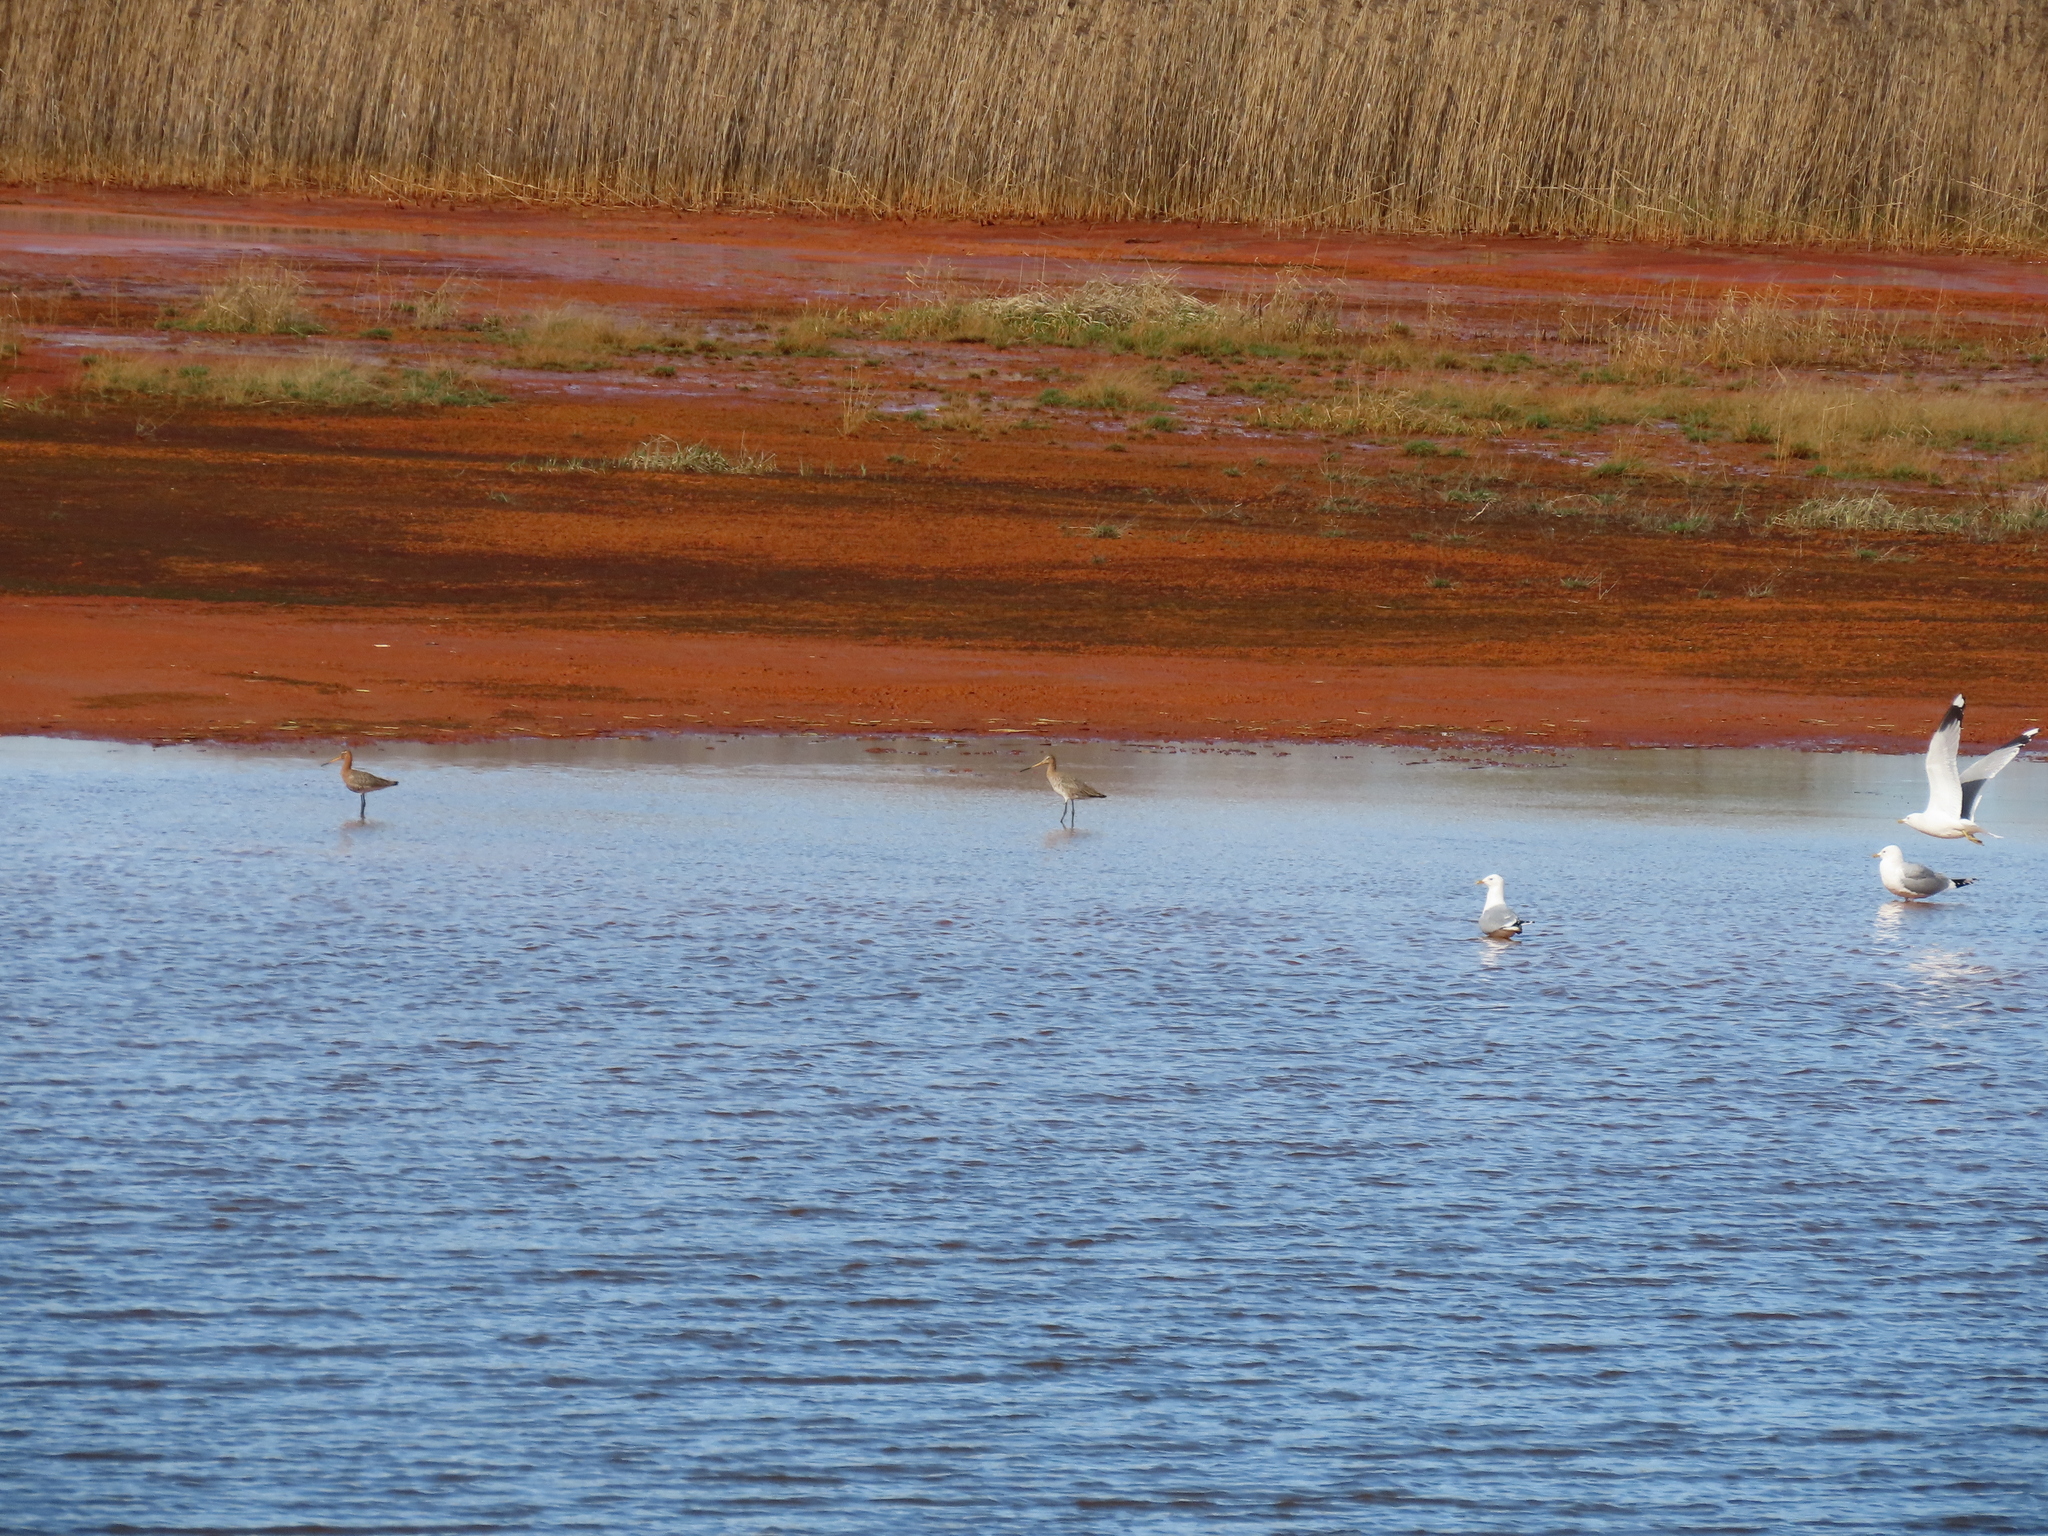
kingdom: Animalia
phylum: Chordata
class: Aves
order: Charadriiformes
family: Scolopacidae
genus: Limosa
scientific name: Limosa limosa
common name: Black-tailed godwit
